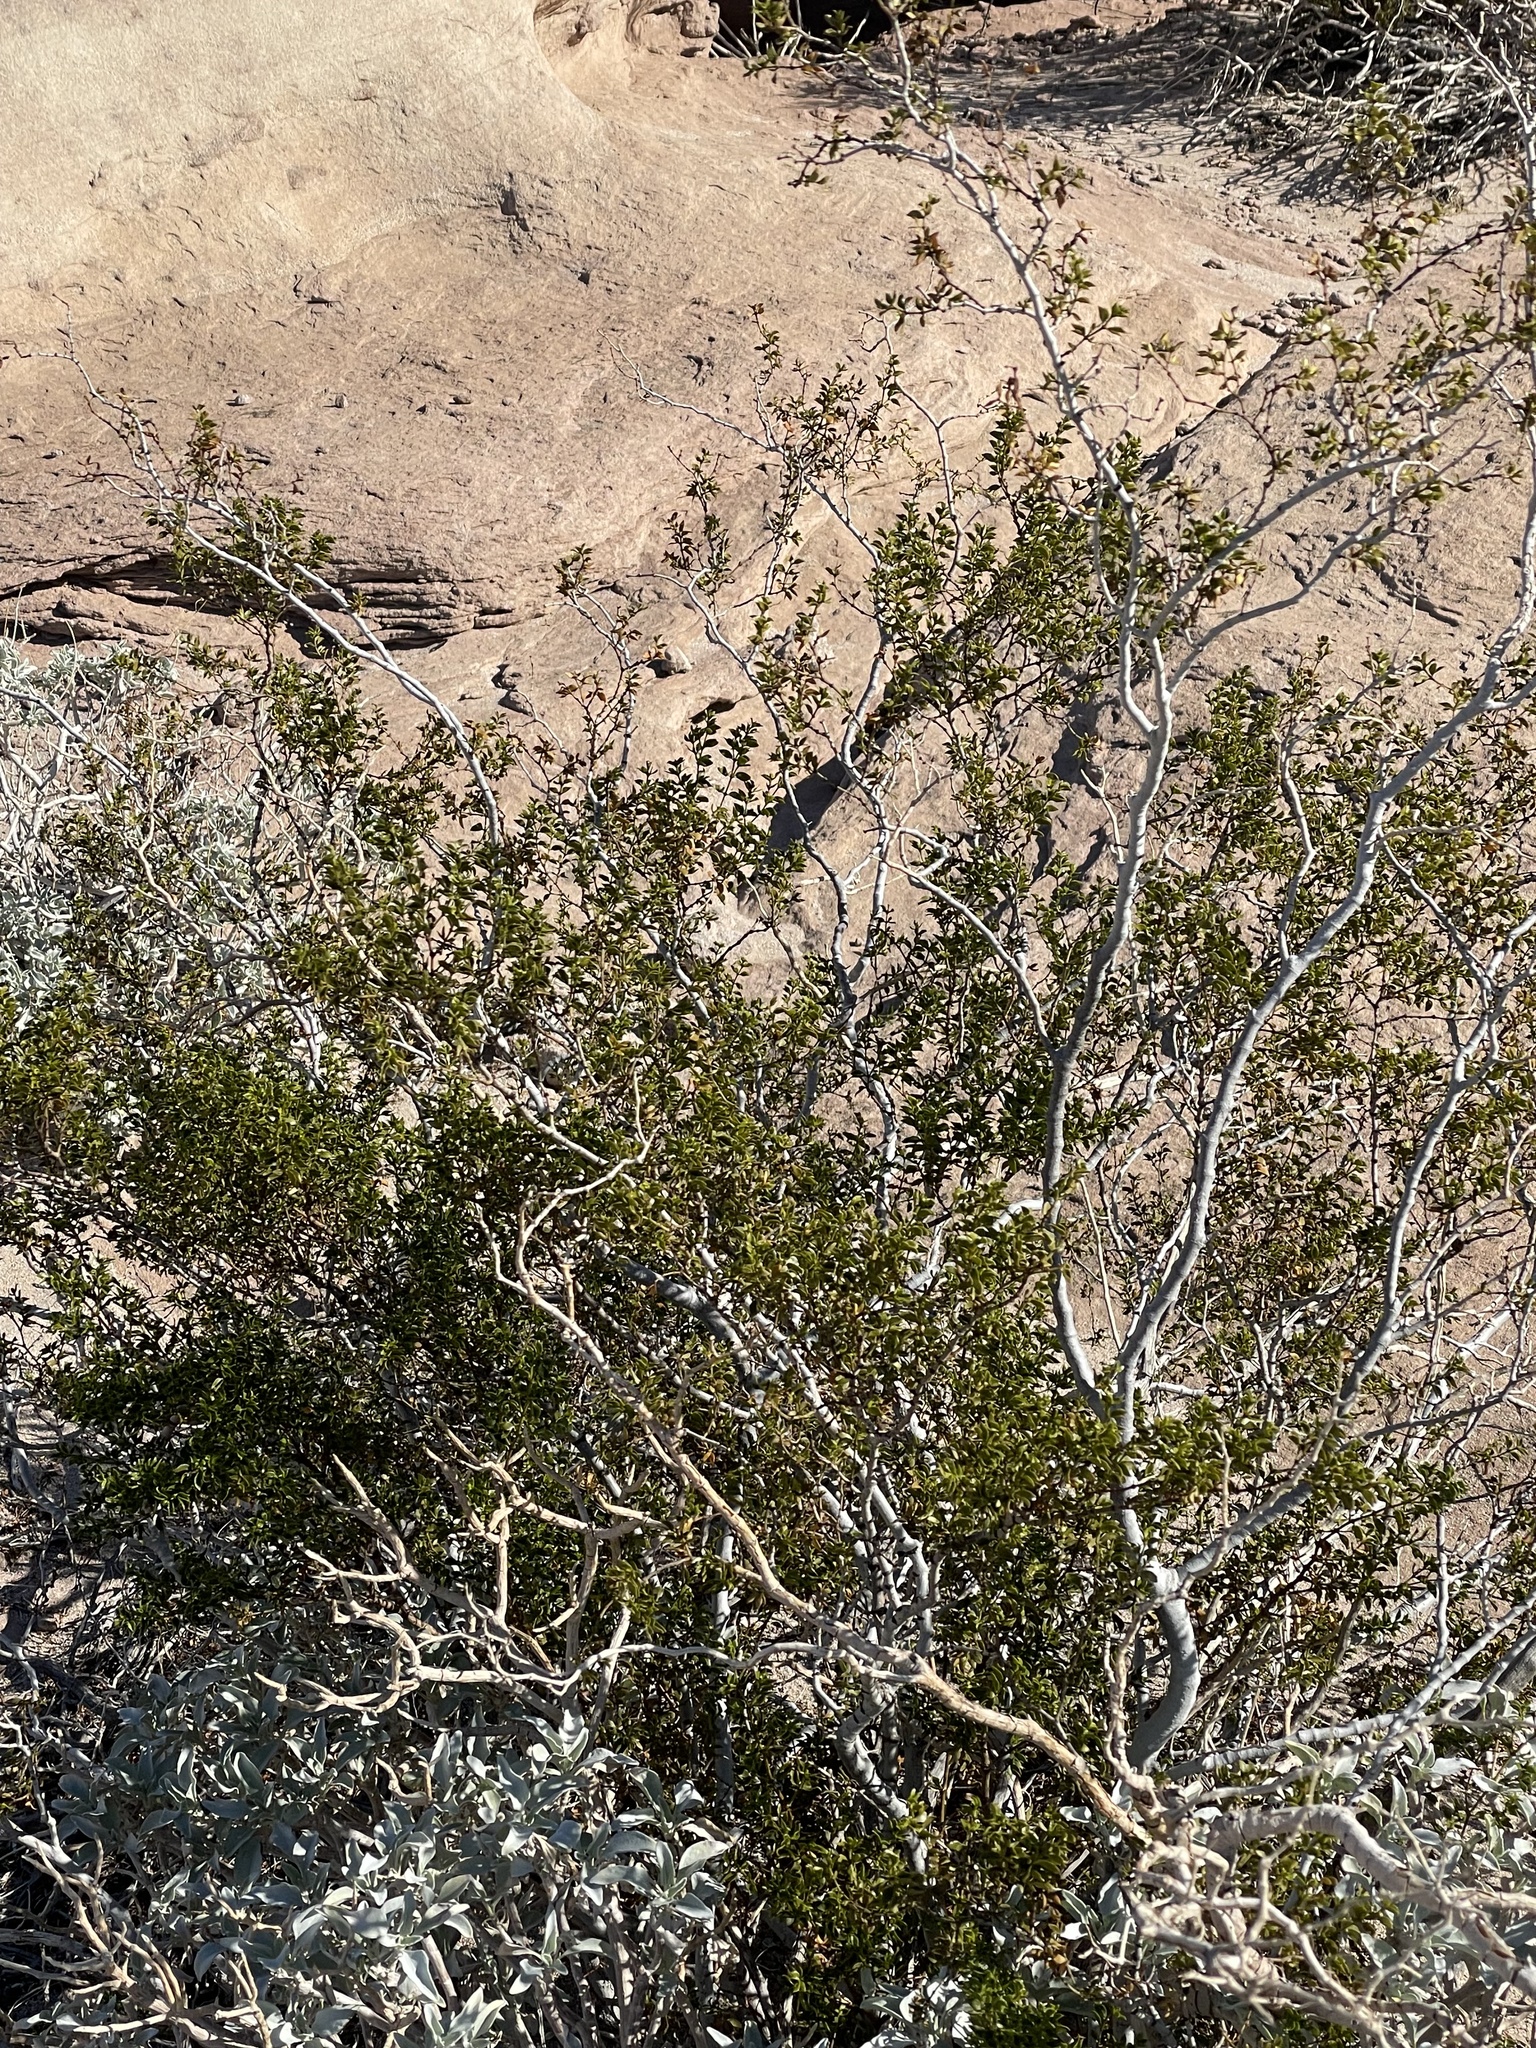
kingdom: Plantae
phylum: Tracheophyta
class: Magnoliopsida
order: Zygophyllales
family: Zygophyllaceae
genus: Larrea
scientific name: Larrea tridentata
